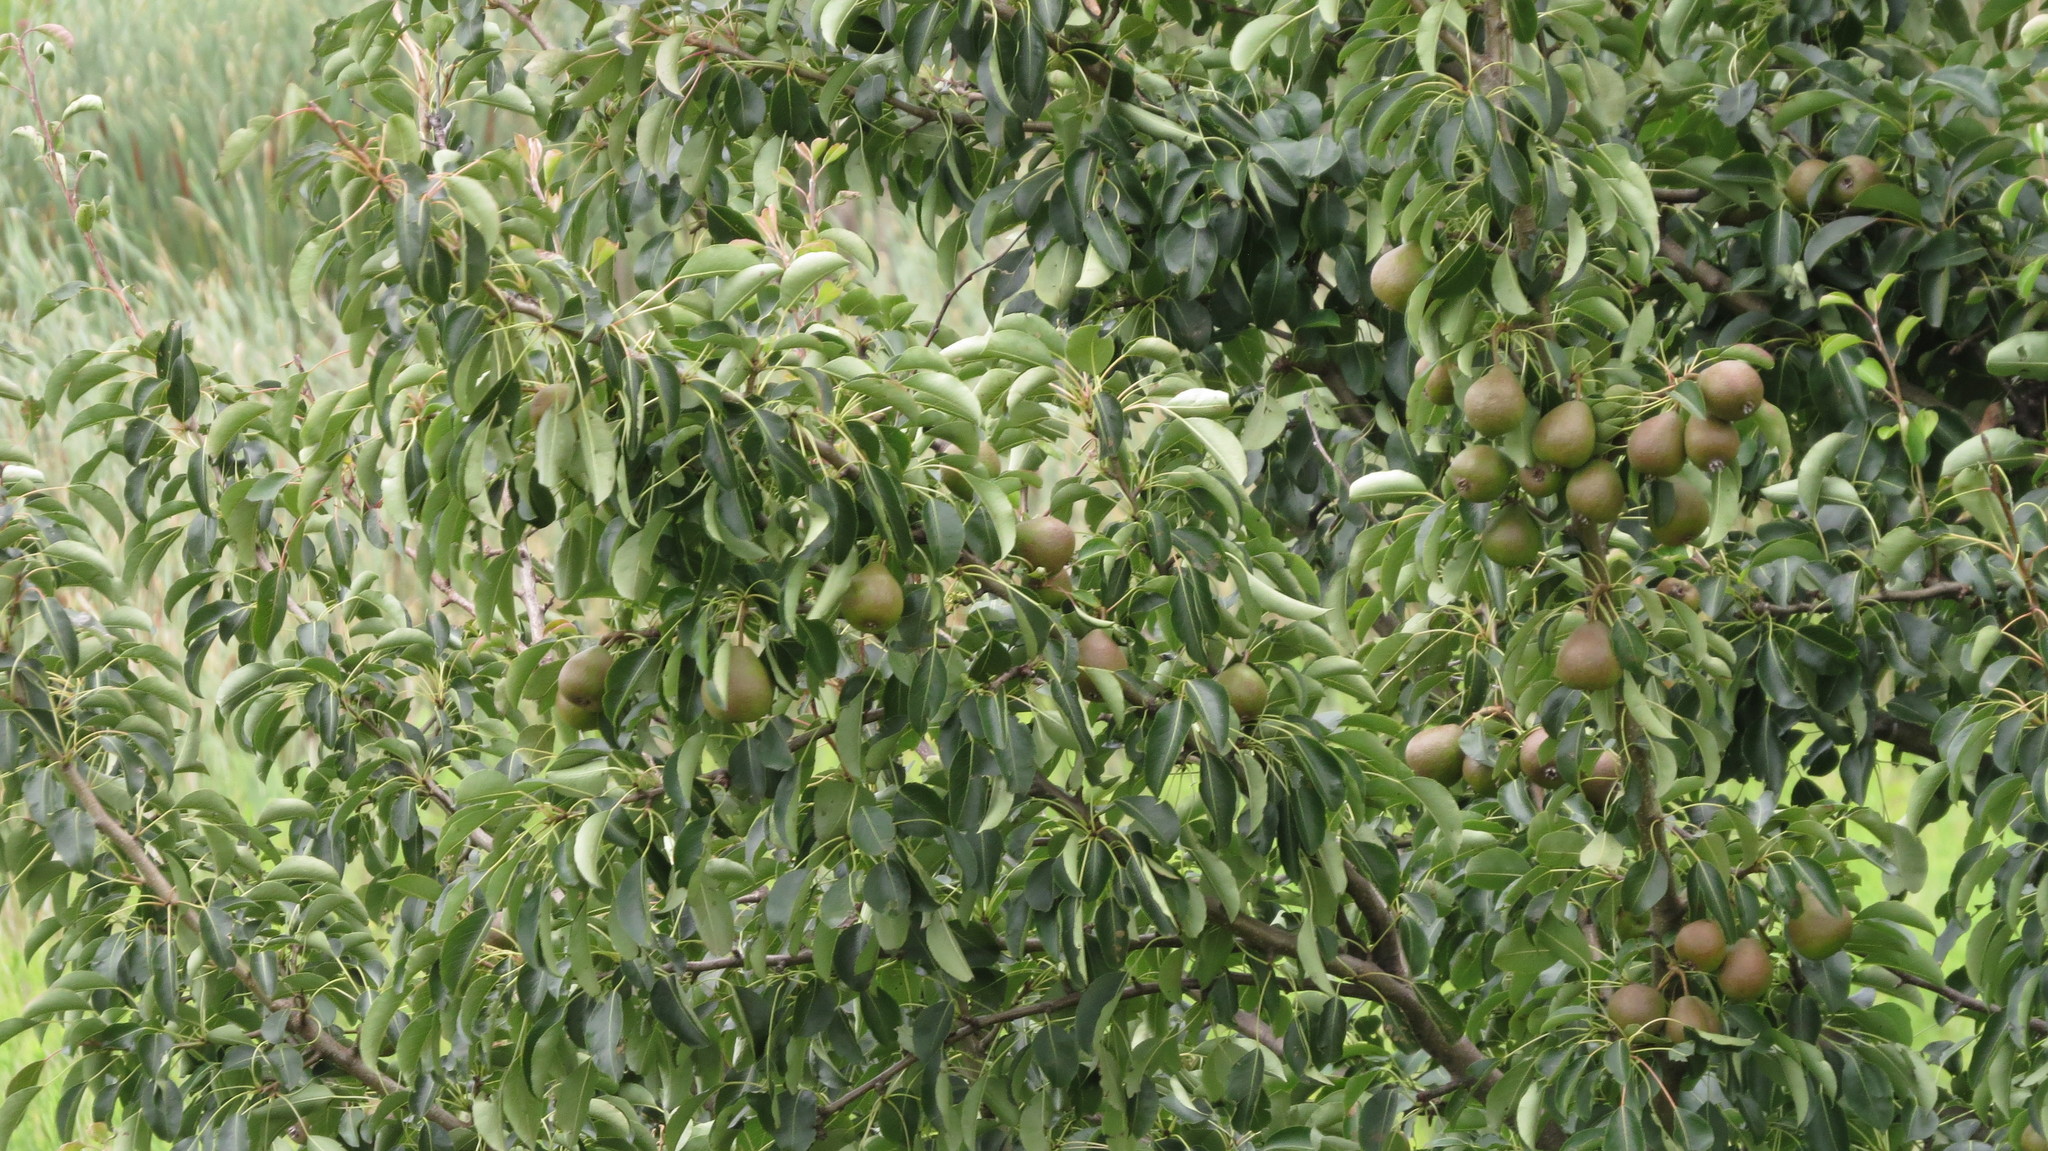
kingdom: Plantae
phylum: Tracheophyta
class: Magnoliopsida
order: Rosales
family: Rosaceae
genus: Pyrus
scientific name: Pyrus communis
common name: Pear
